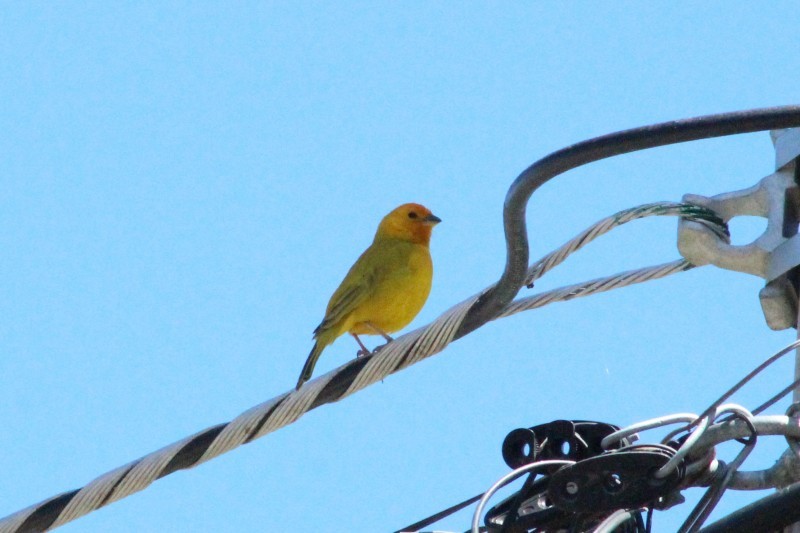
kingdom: Animalia
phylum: Chordata
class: Aves
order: Passeriformes
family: Thraupidae
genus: Sicalis
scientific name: Sicalis flaveola
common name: Saffron finch
